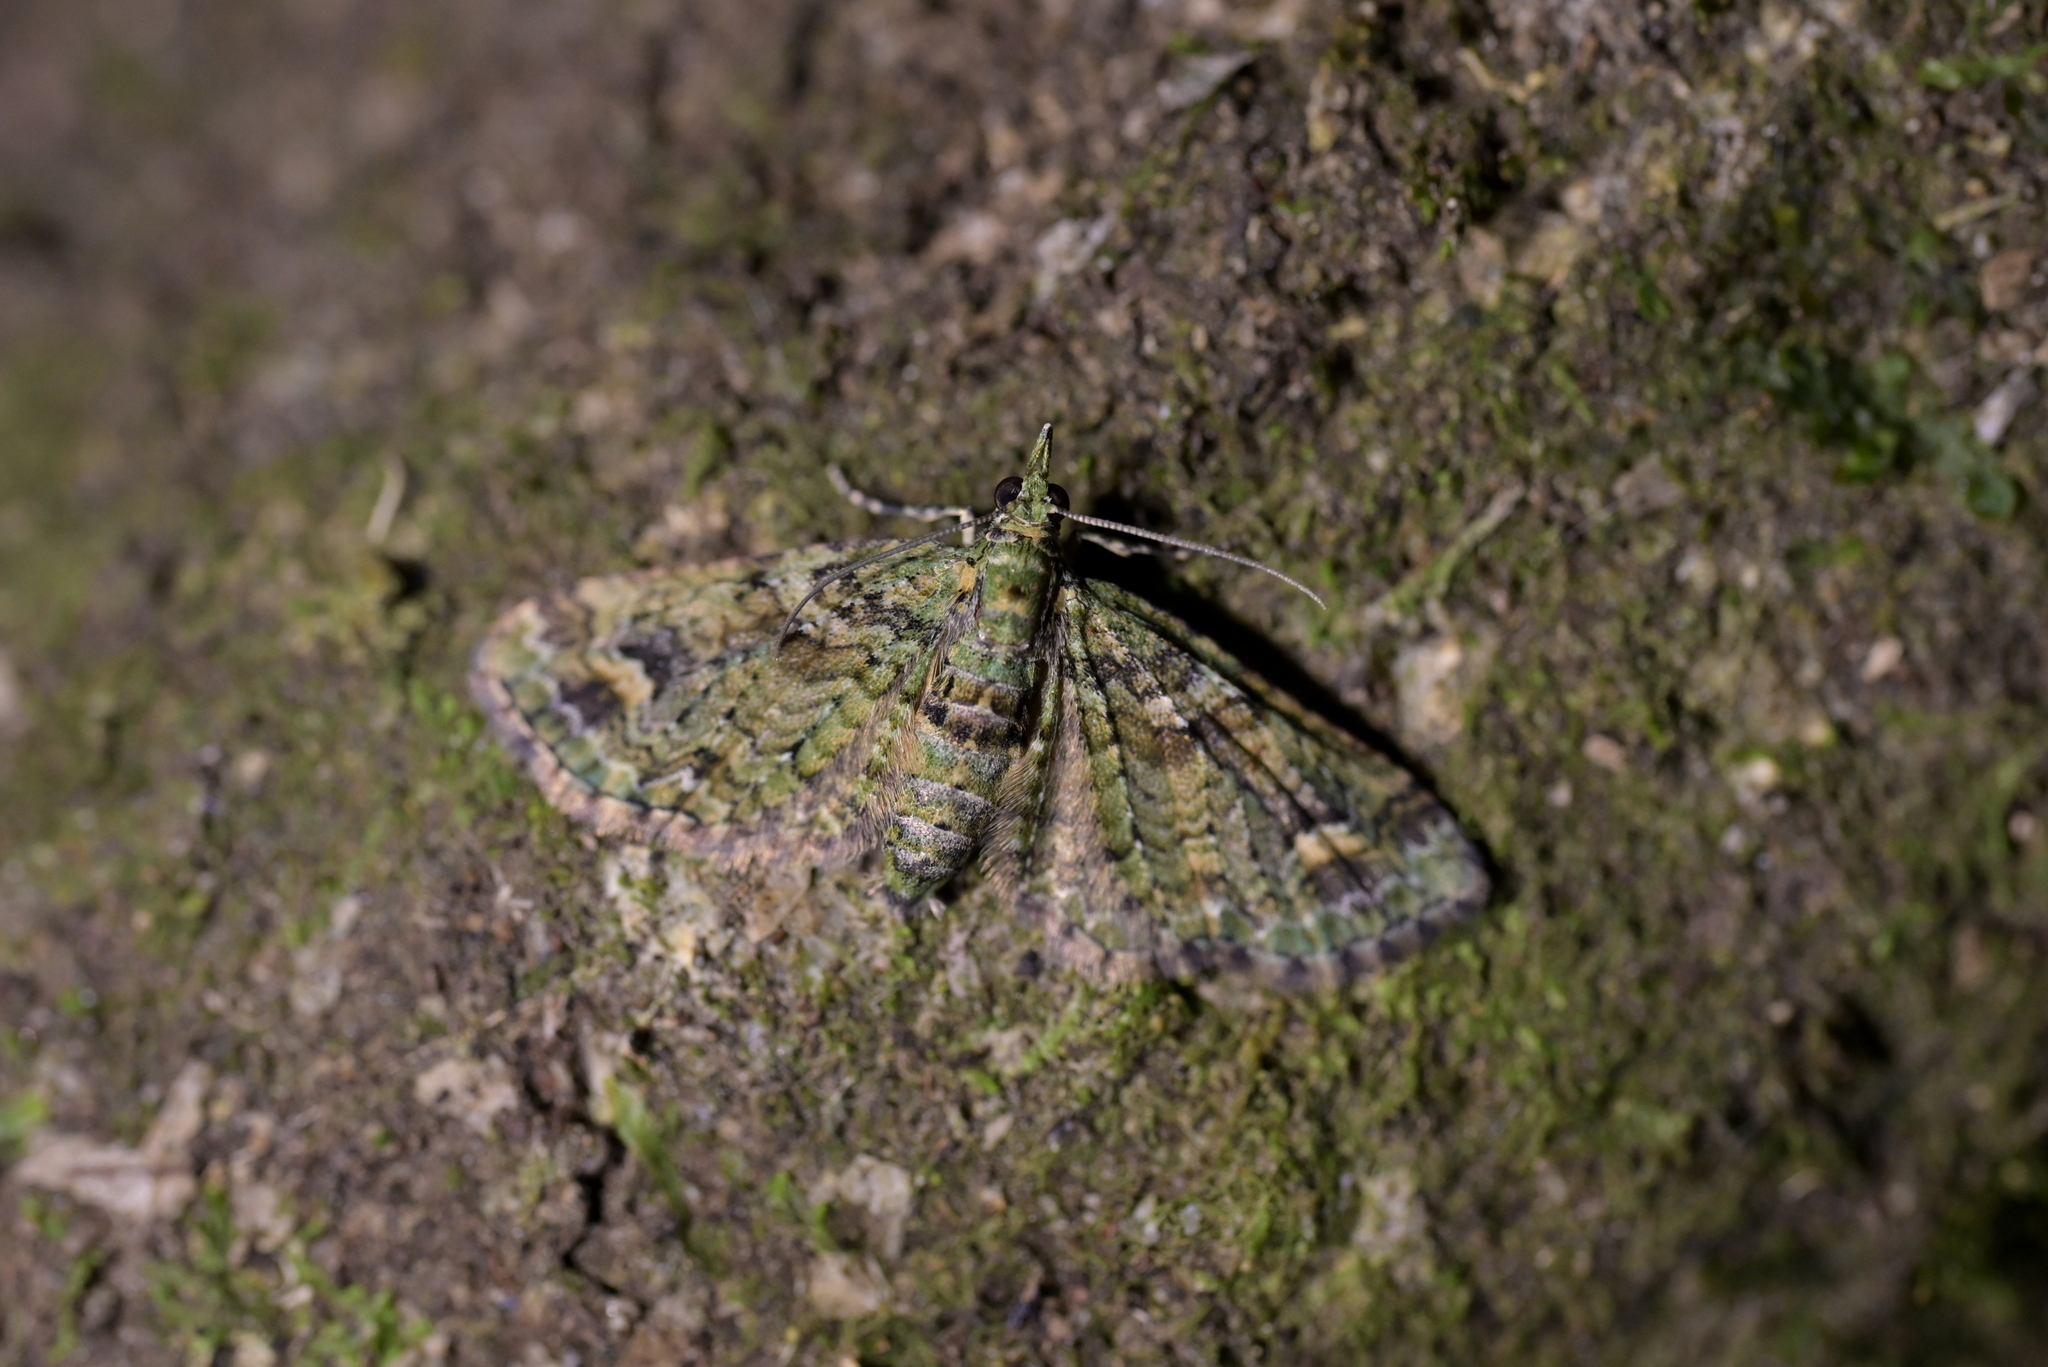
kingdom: Animalia
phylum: Arthropoda
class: Insecta
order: Lepidoptera
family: Geometridae
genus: Idaea
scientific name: Idaea mutanda
